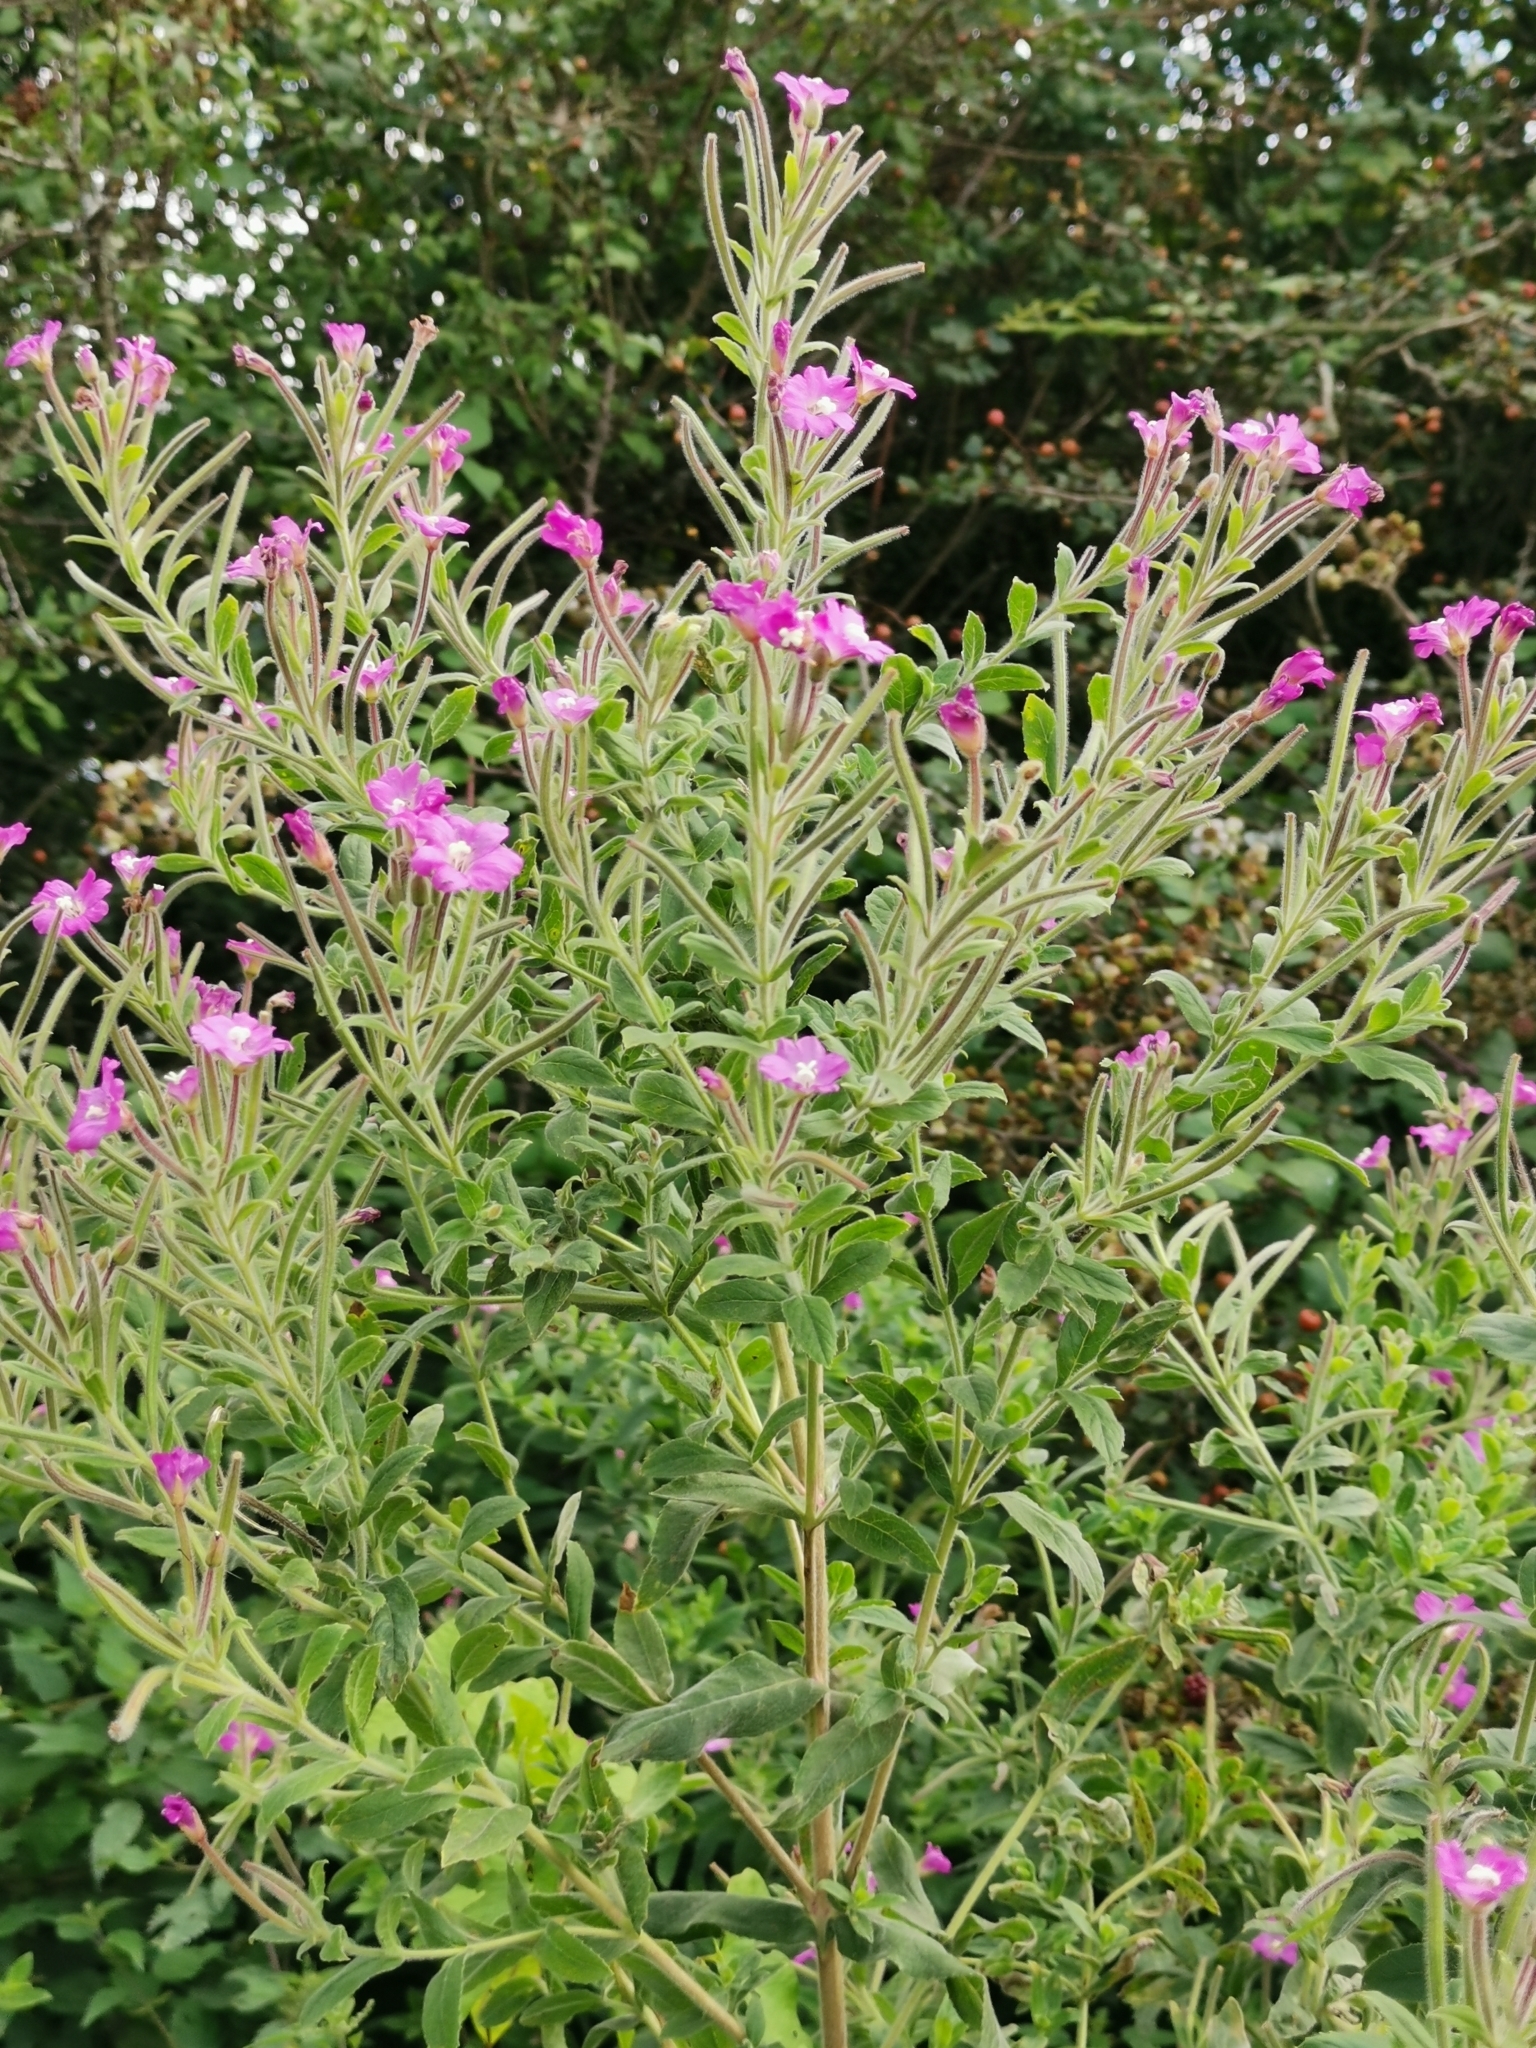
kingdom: Plantae
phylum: Tracheophyta
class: Magnoliopsida
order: Myrtales
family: Onagraceae
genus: Epilobium
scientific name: Epilobium hirsutum
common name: Great willowherb
